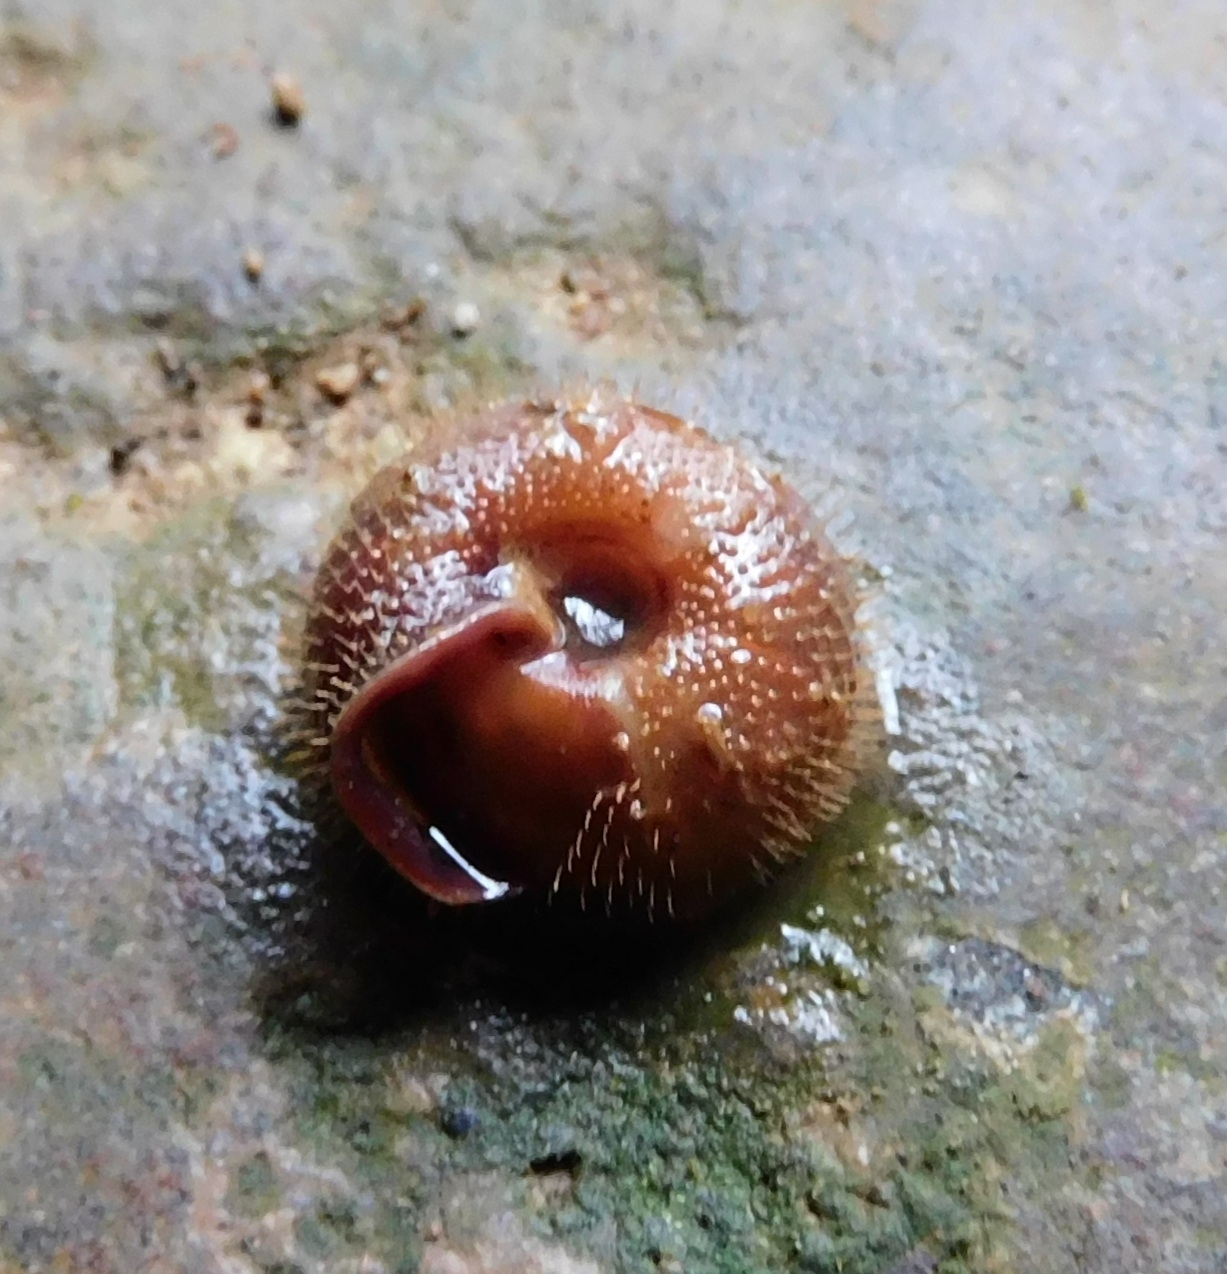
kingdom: Animalia
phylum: Mollusca
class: Gastropoda
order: Stylommatophora
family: Helicodontidae
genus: Helicodonta
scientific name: Helicodonta obvoluta
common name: Cheese snail
